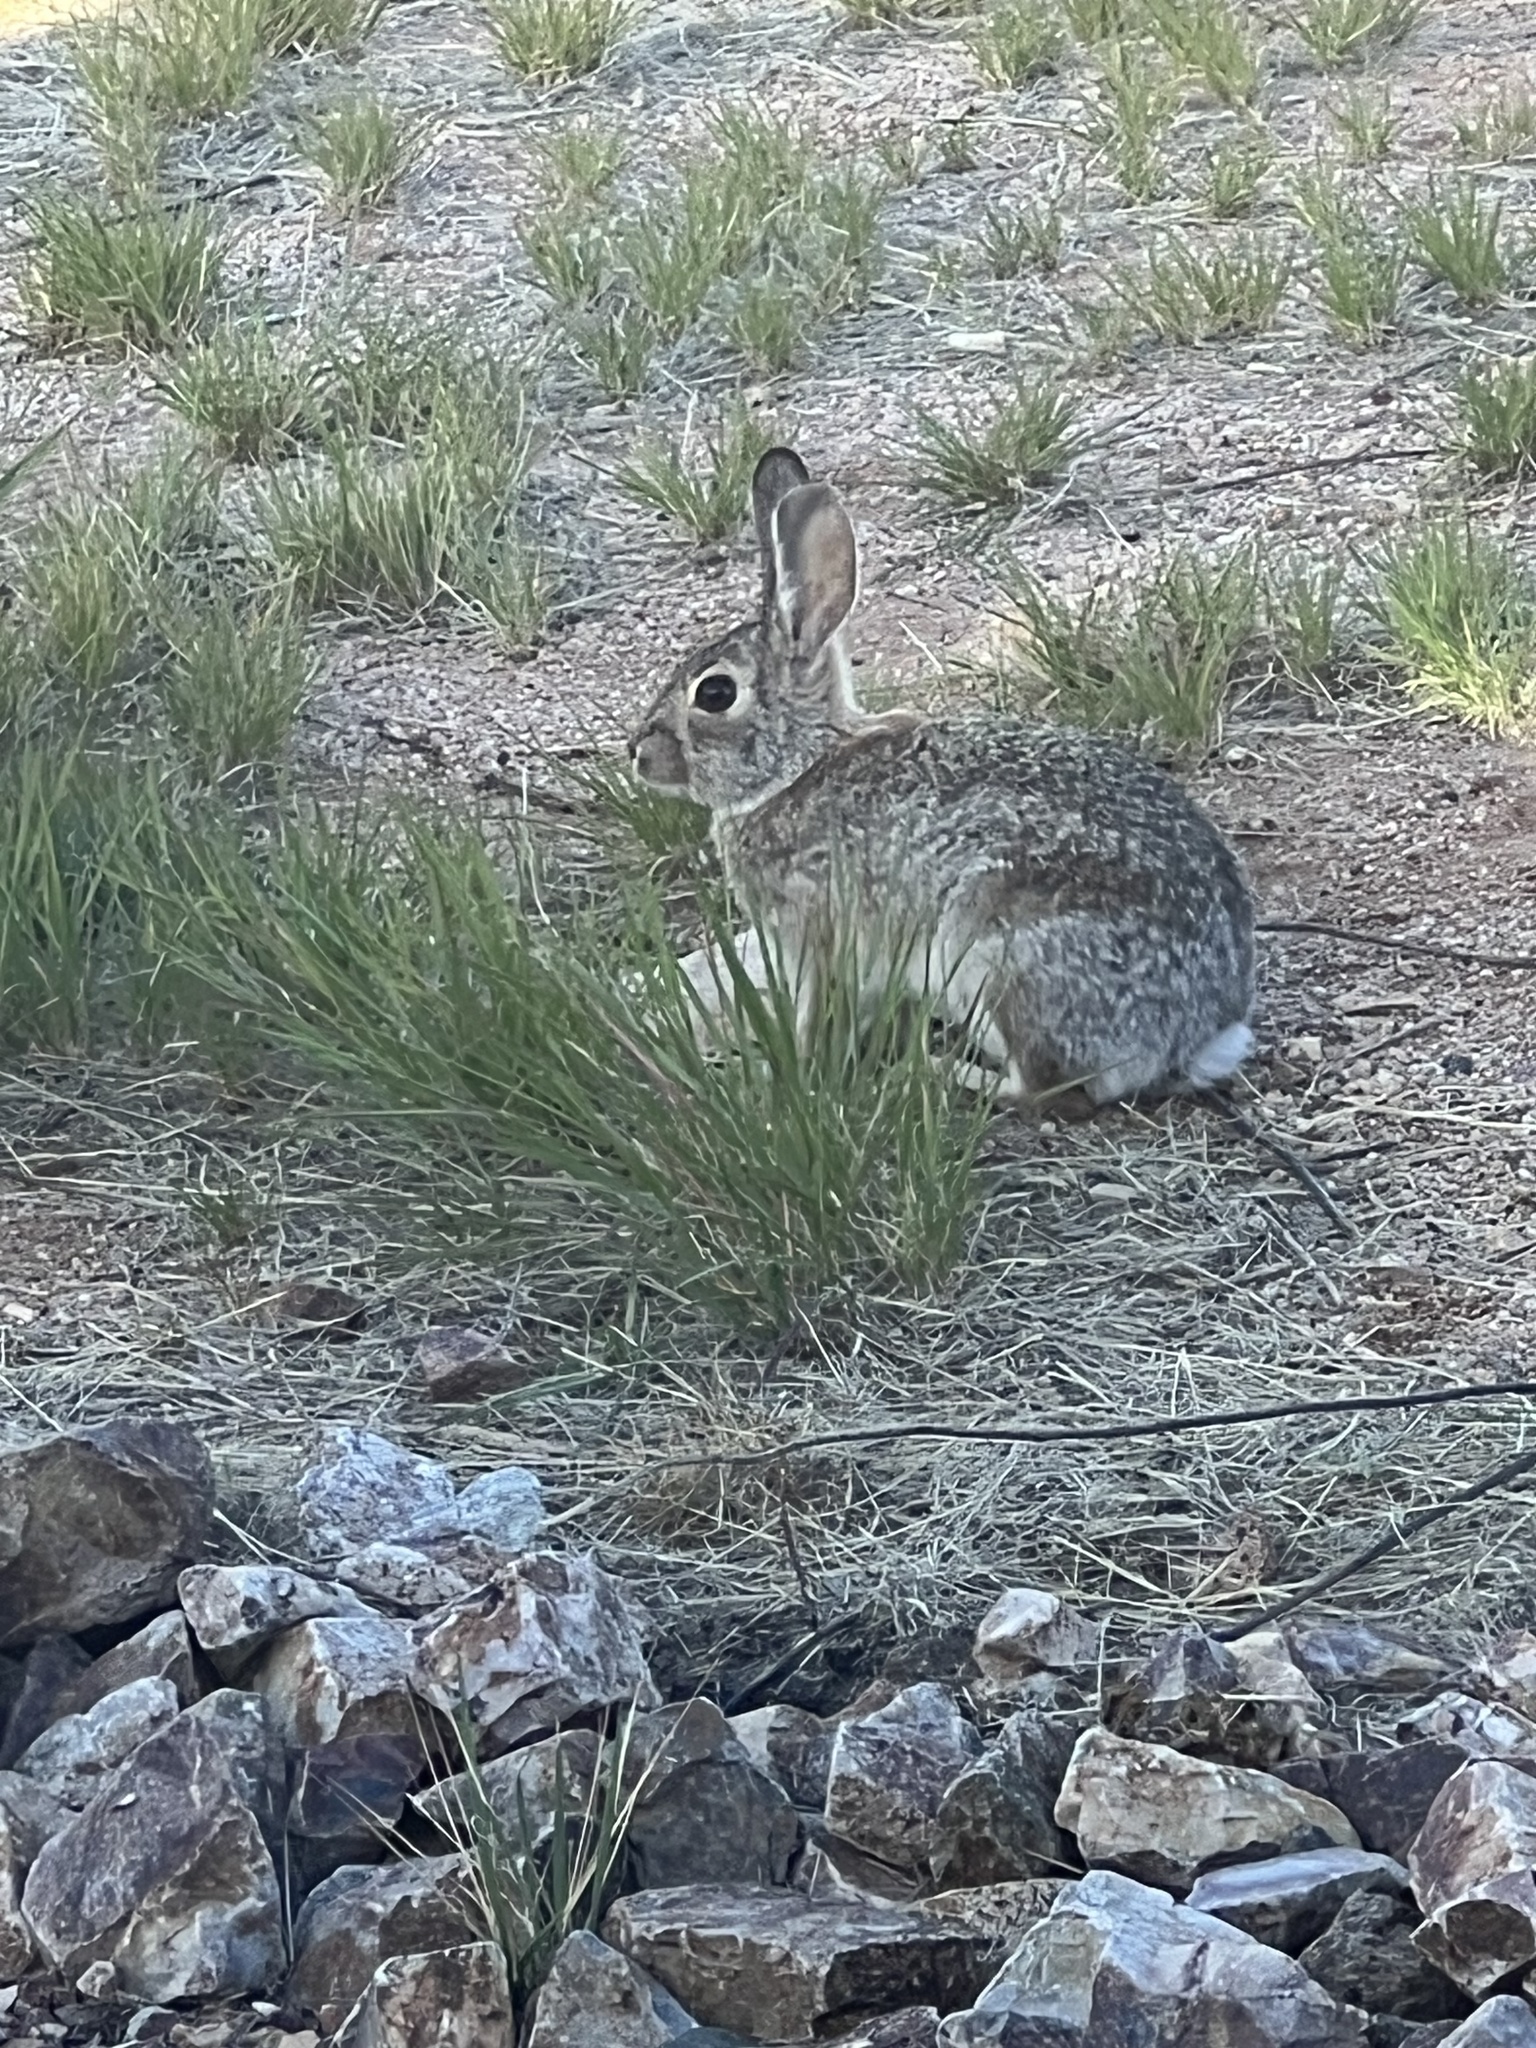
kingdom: Animalia
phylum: Chordata
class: Mammalia
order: Lagomorpha
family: Leporidae
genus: Sylvilagus
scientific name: Sylvilagus audubonii
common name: Desert cottontail
